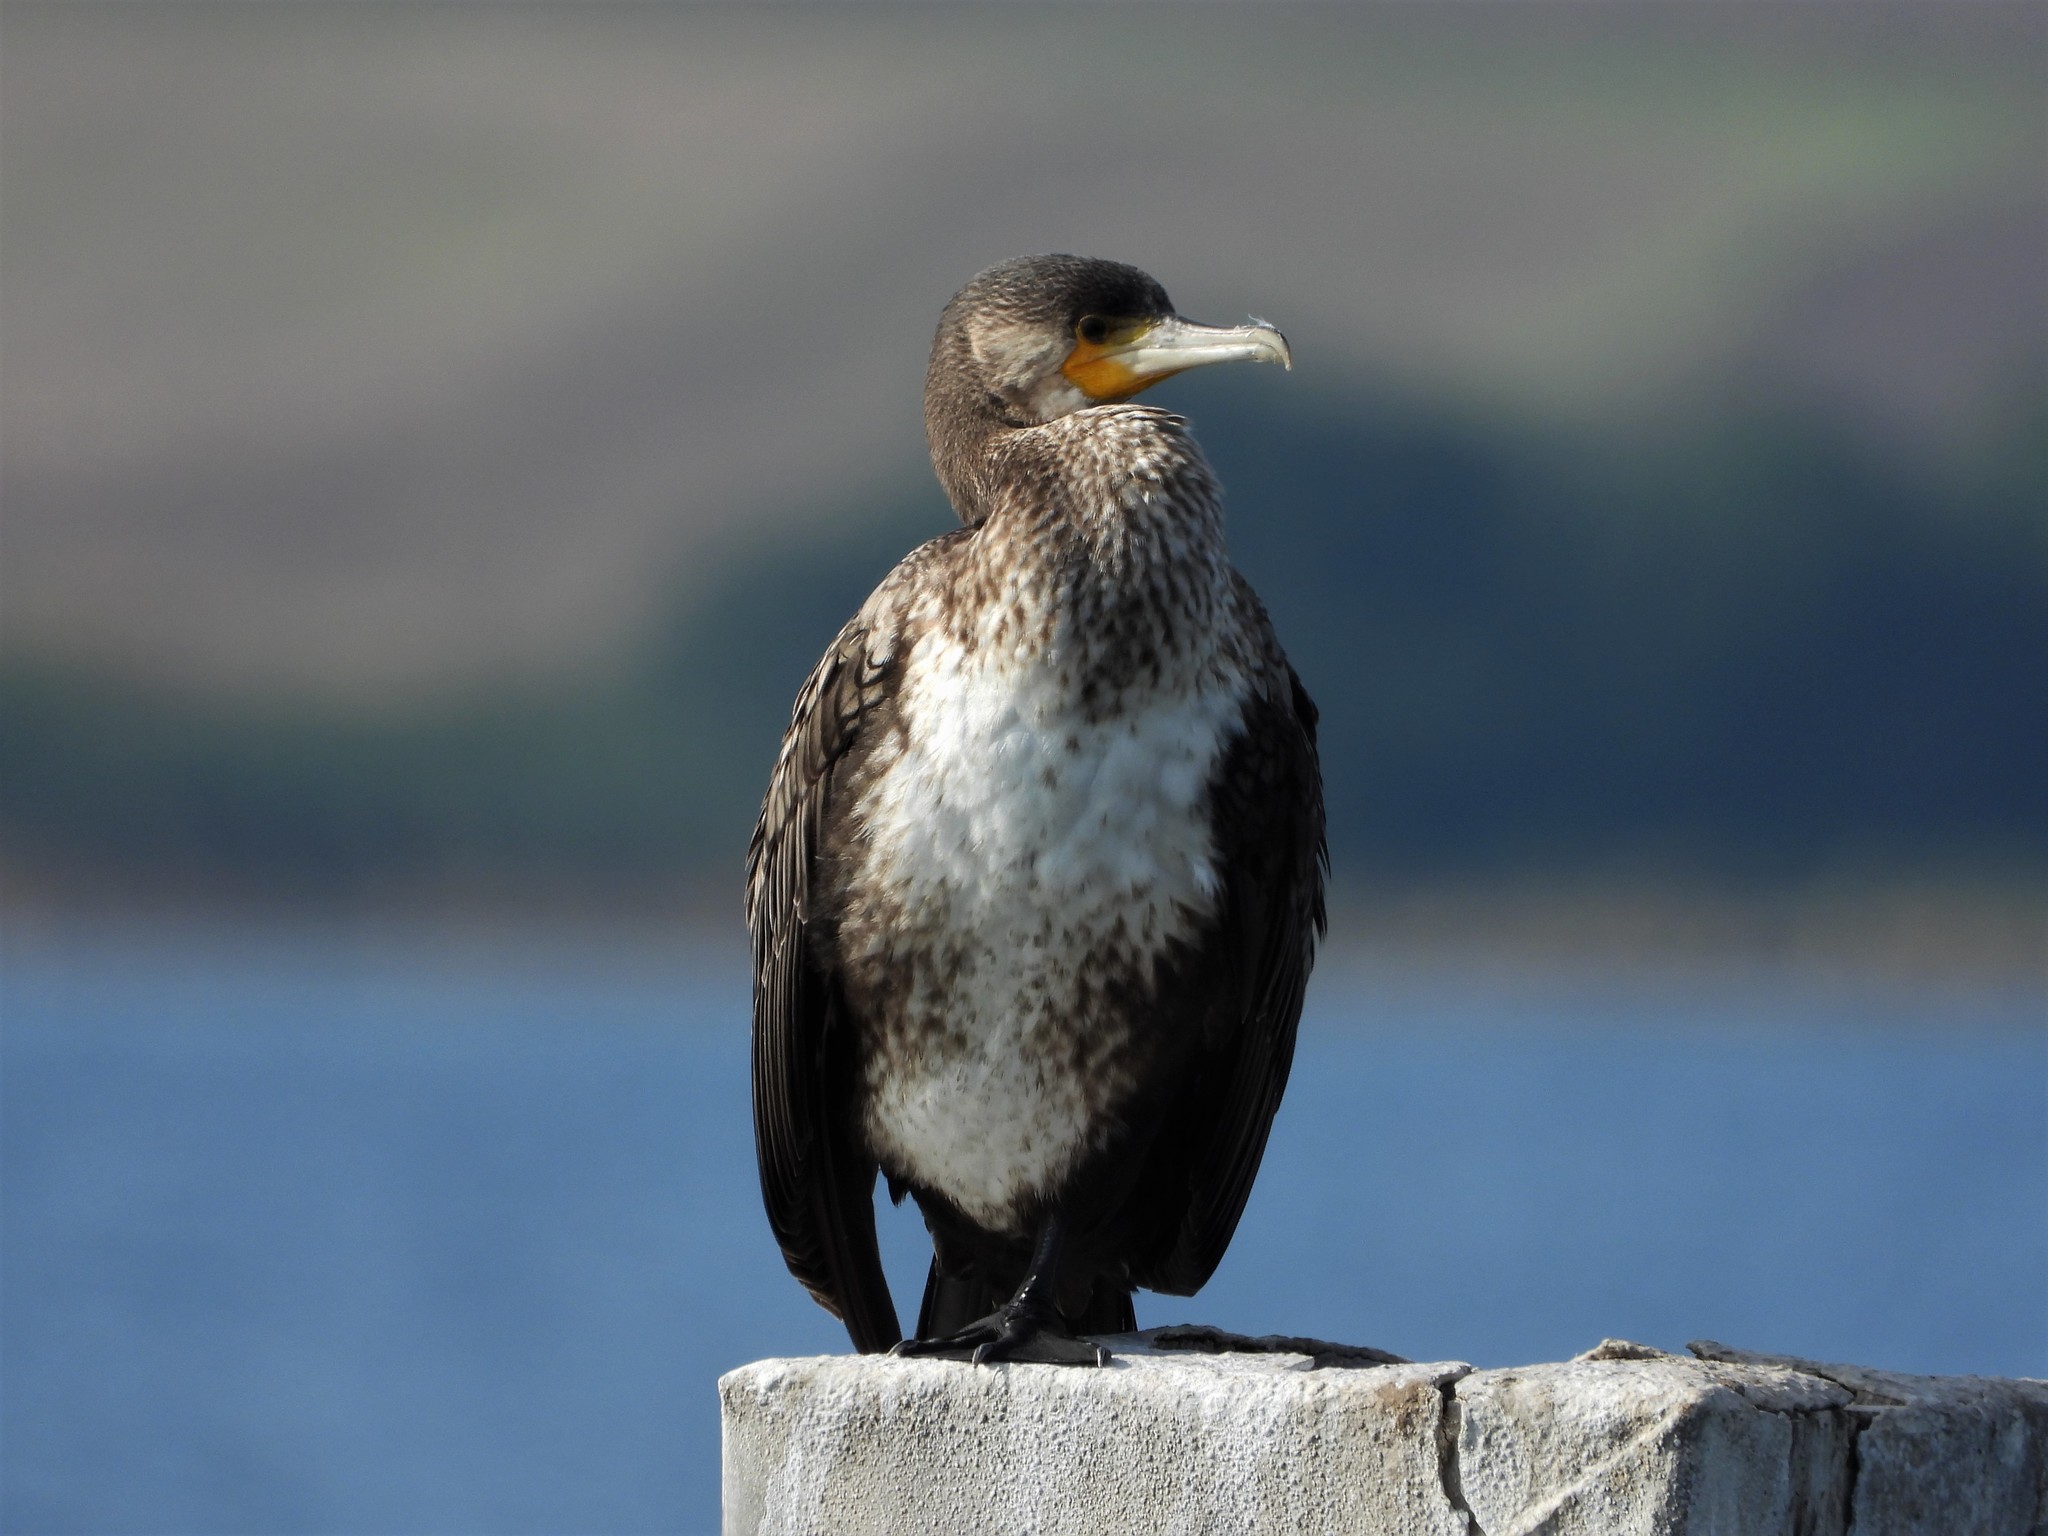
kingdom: Animalia
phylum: Chordata
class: Aves
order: Suliformes
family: Phalacrocoracidae
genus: Phalacrocorax
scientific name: Phalacrocorax carbo
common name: Great cormorant
